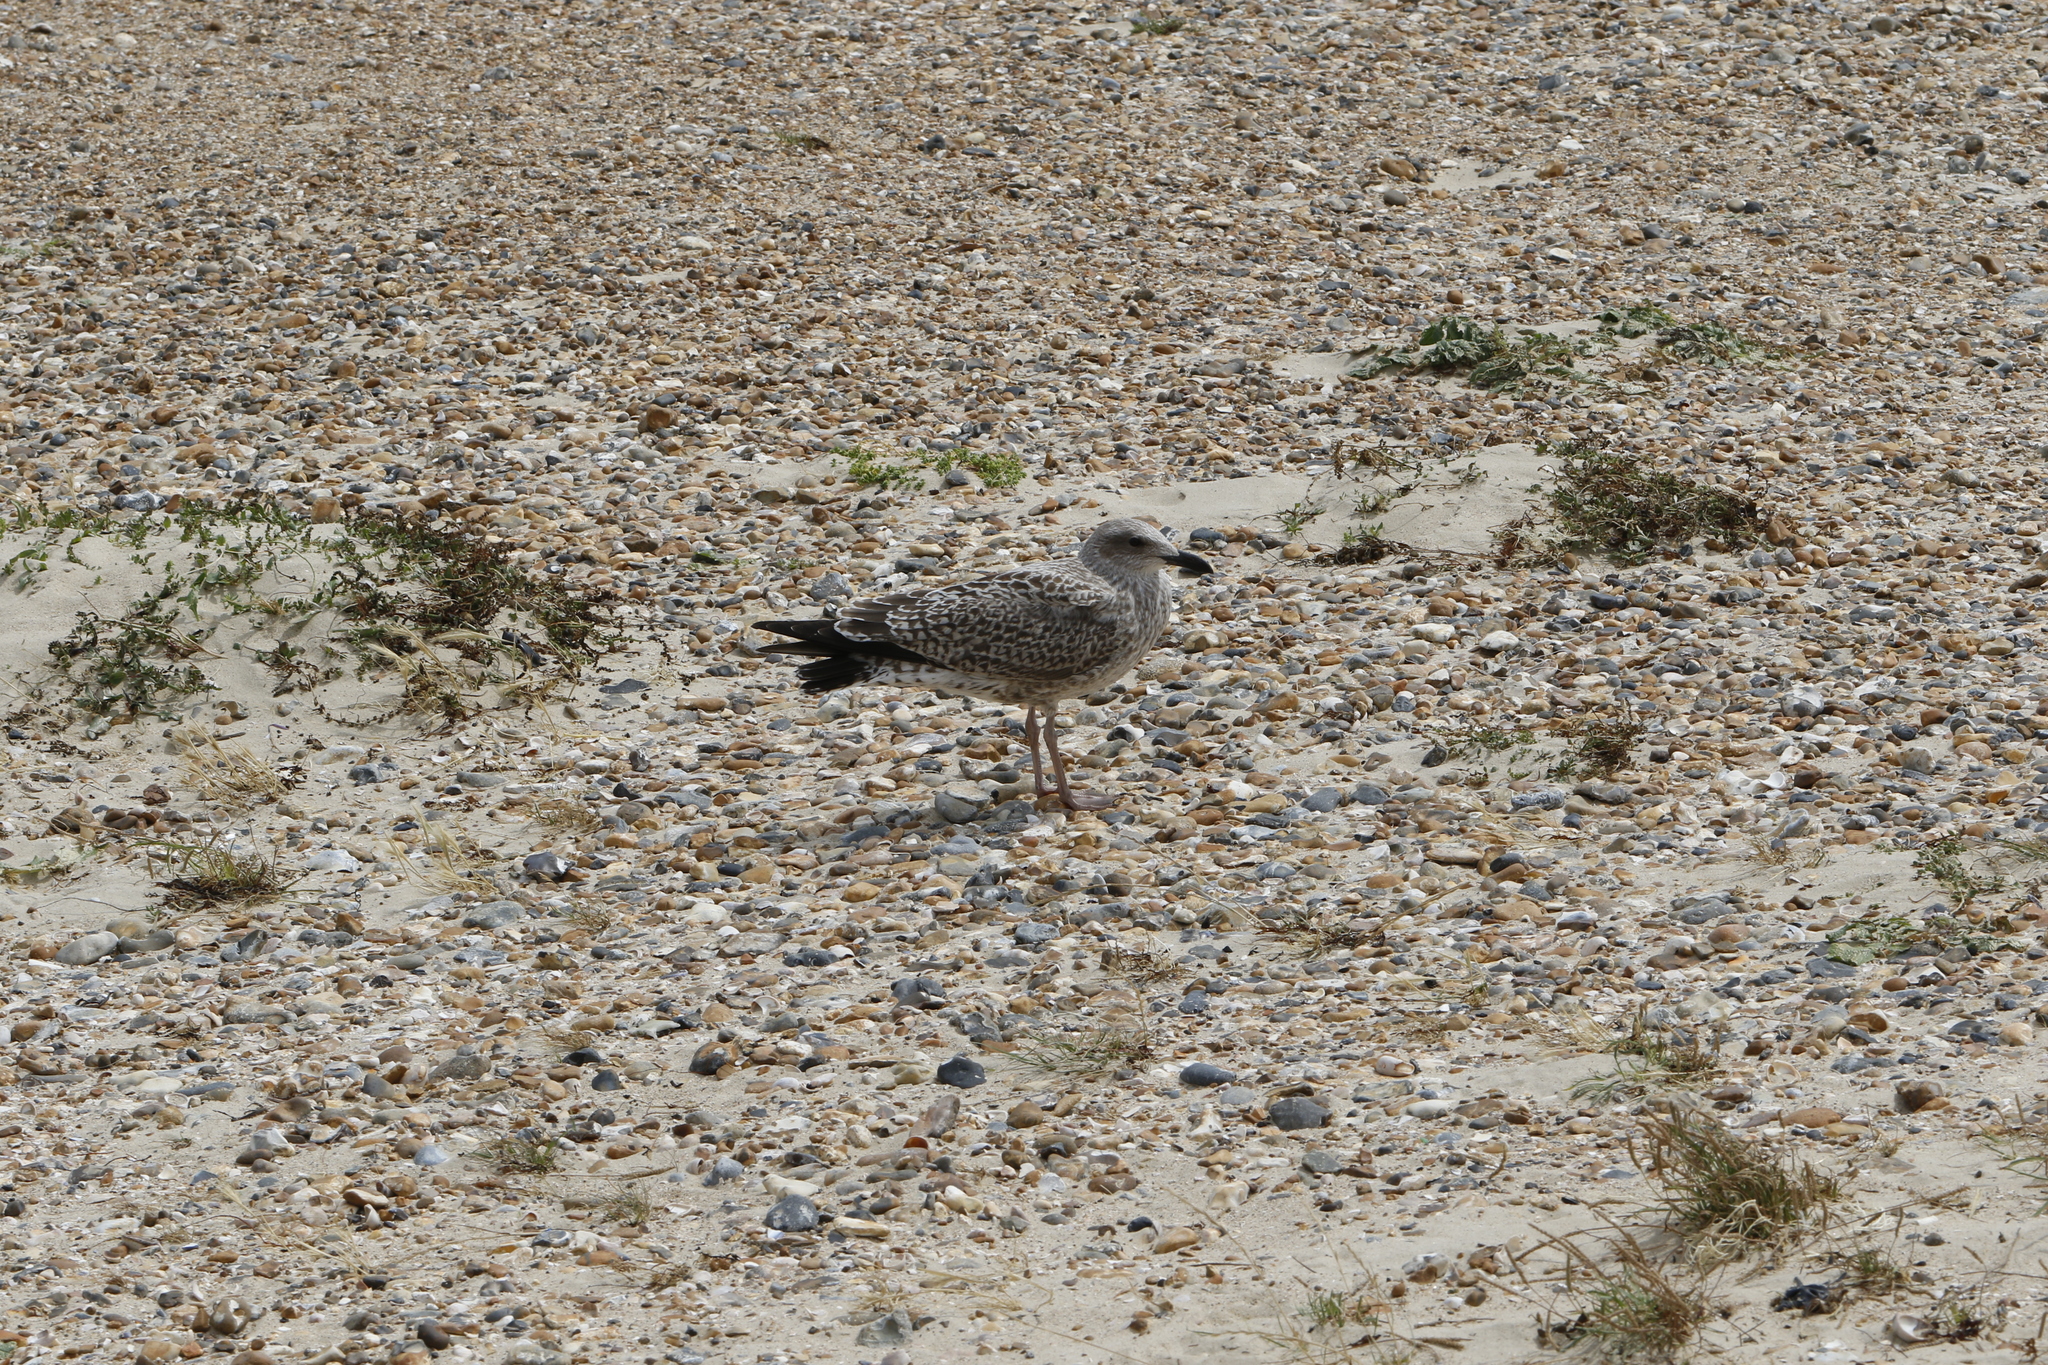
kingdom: Animalia
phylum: Chordata
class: Aves
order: Charadriiformes
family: Laridae
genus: Larus
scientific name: Larus argentatus
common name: Herring gull
